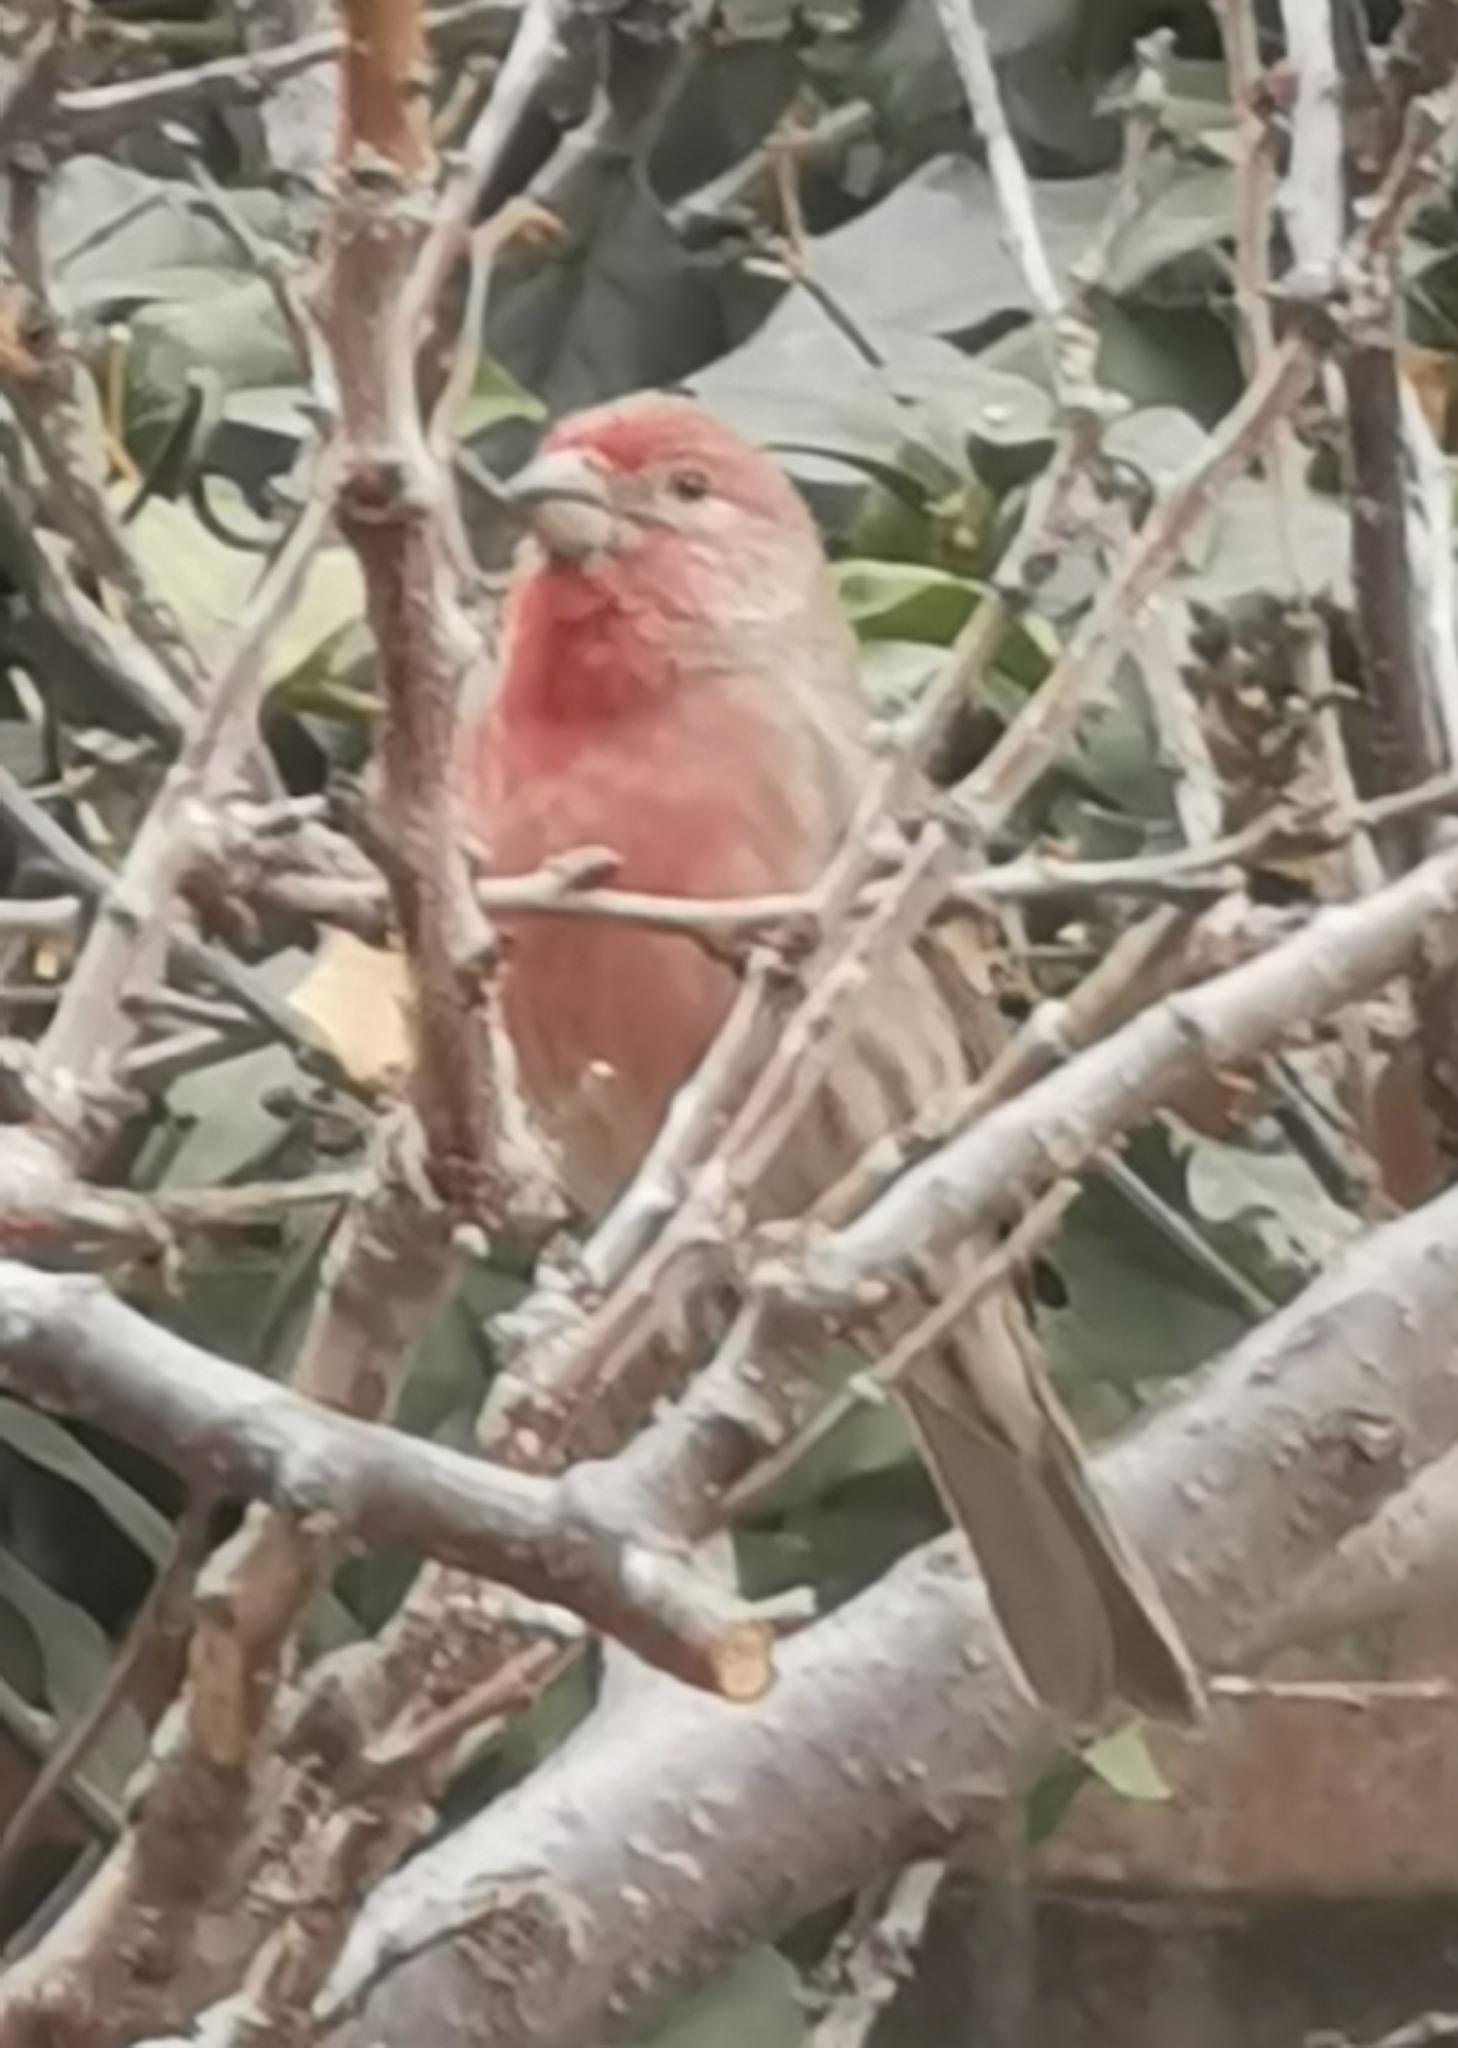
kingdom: Animalia
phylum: Chordata
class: Aves
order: Passeriformes
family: Fringillidae
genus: Haemorhous
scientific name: Haemorhous mexicanus
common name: House finch
